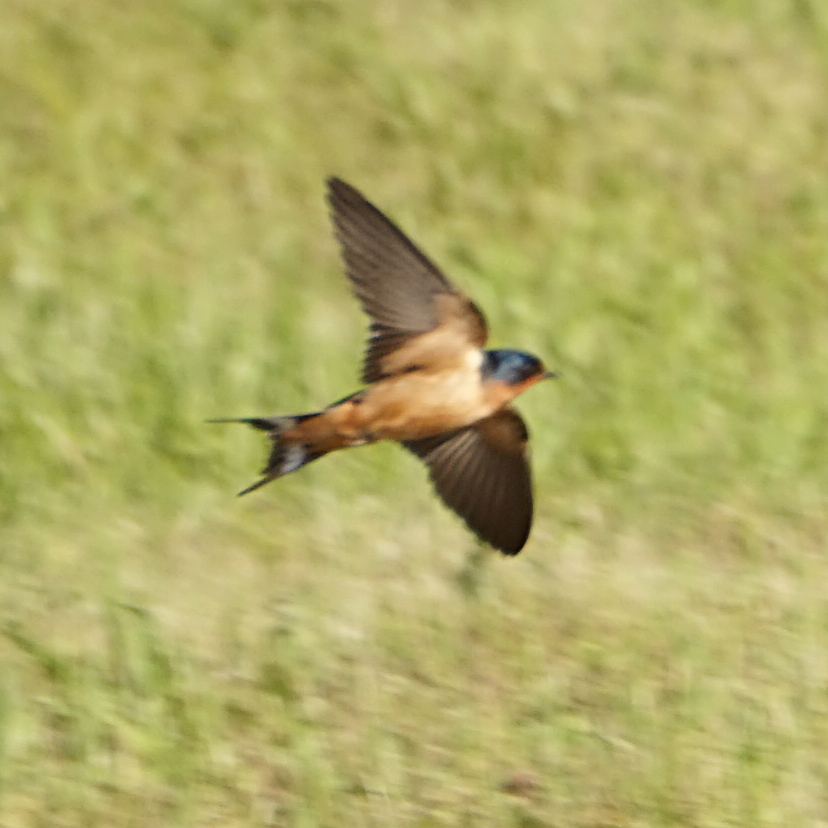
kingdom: Animalia
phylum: Chordata
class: Aves
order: Passeriformes
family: Hirundinidae
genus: Hirundo
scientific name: Hirundo rustica
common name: Barn swallow
